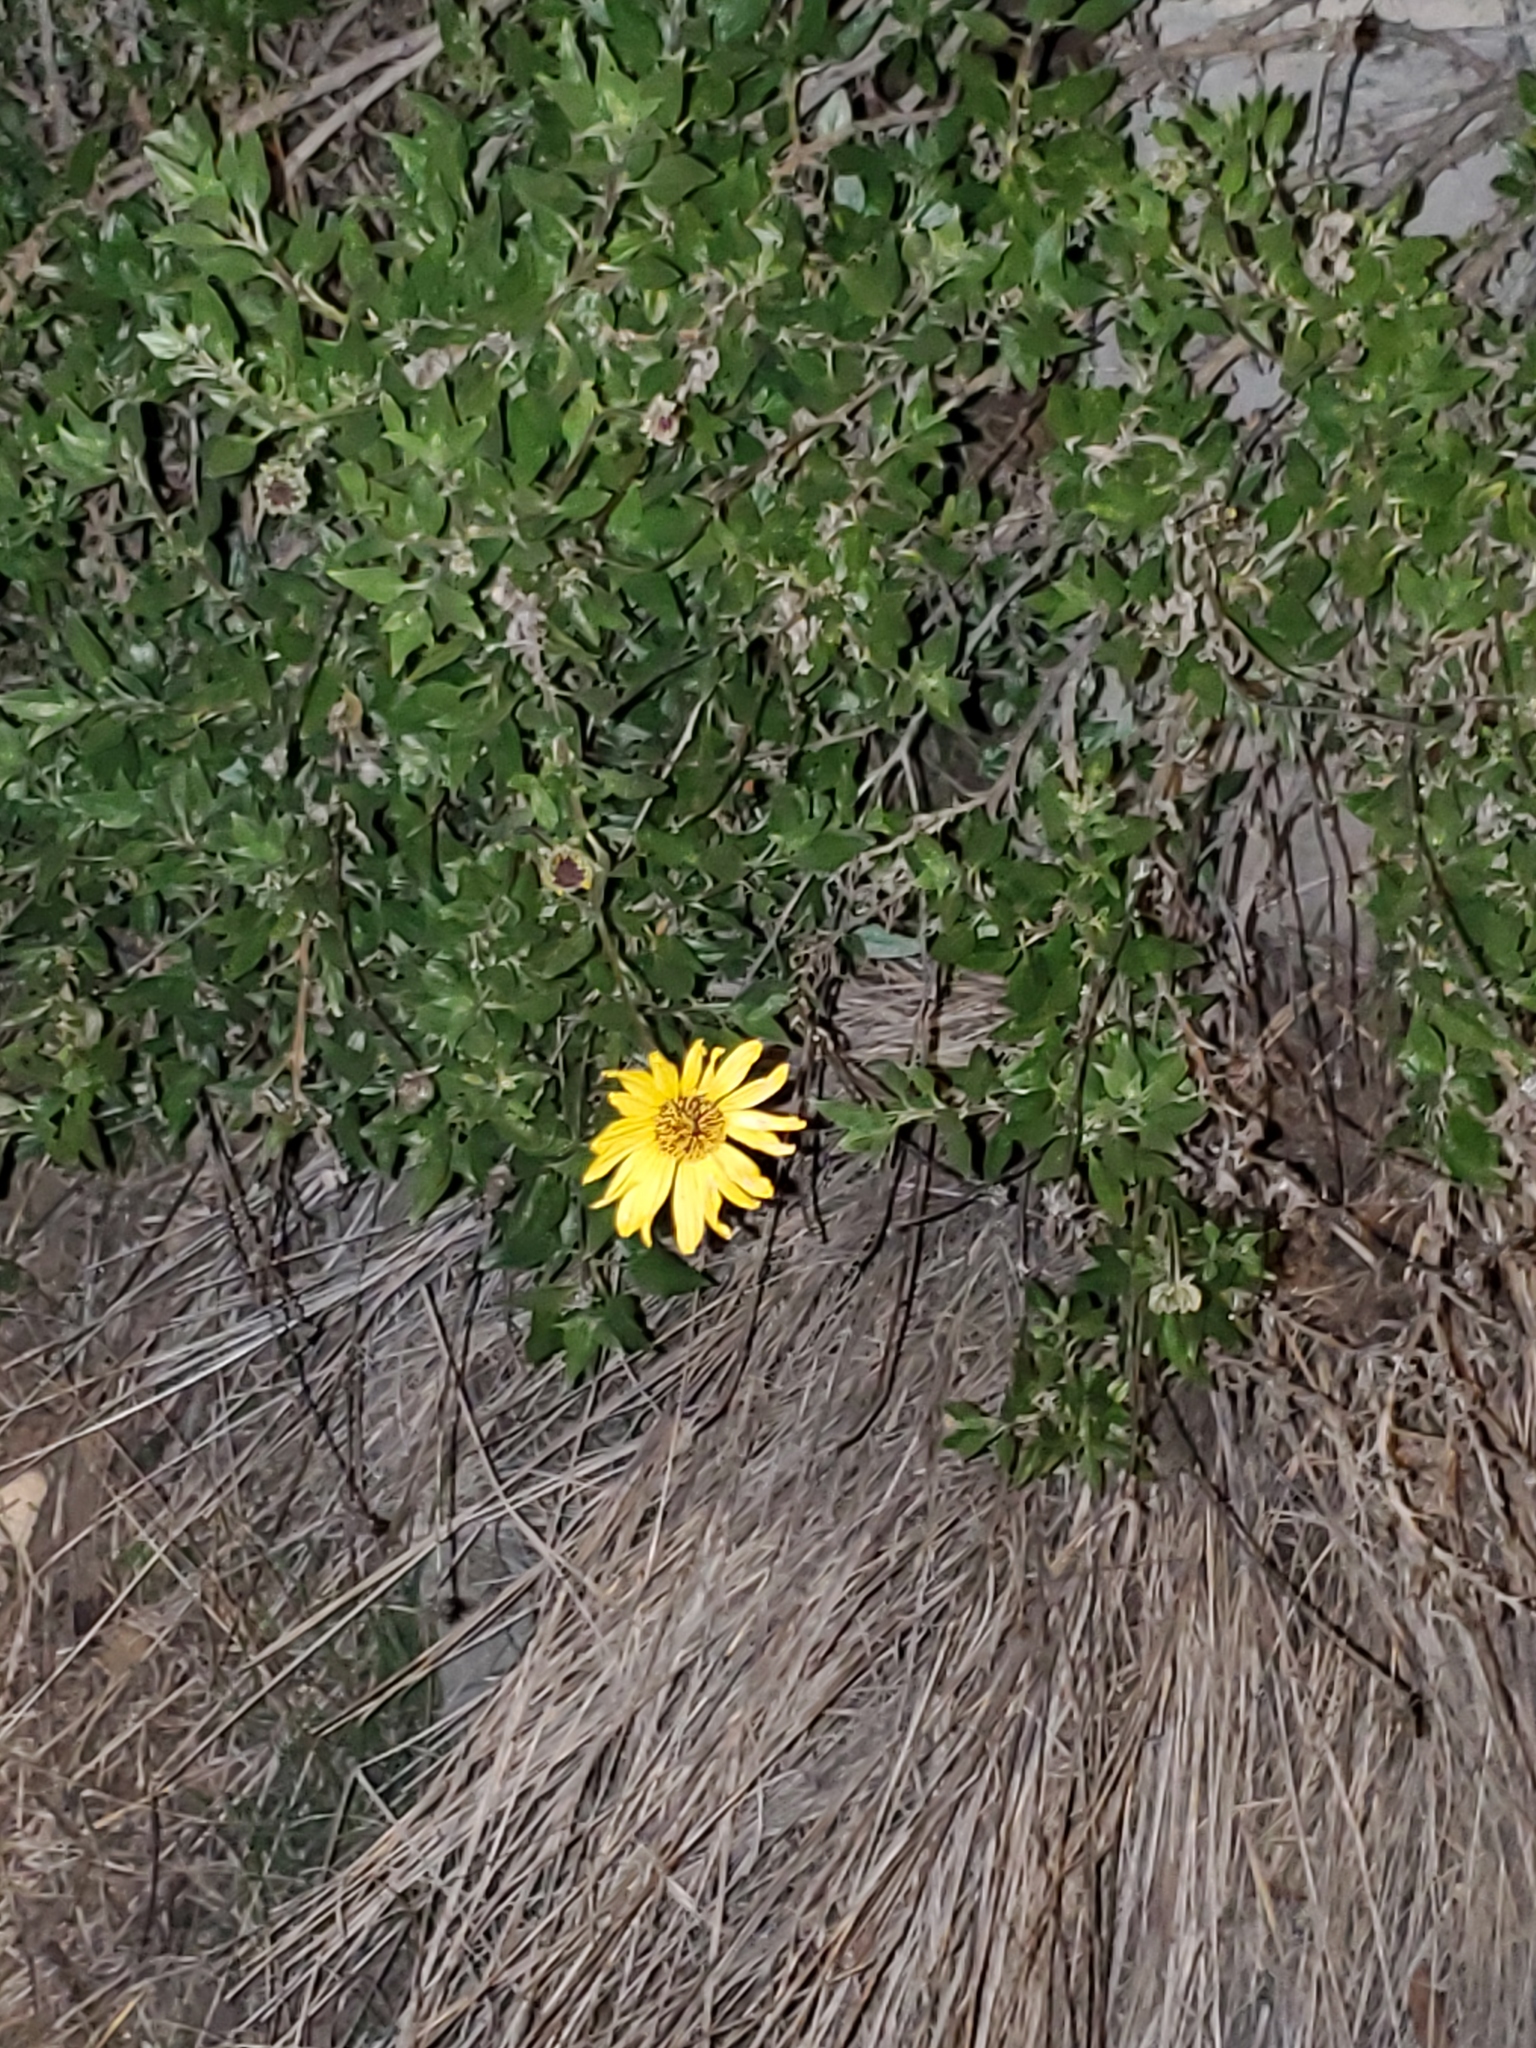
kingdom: Plantae
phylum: Tracheophyta
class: Magnoliopsida
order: Asterales
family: Asteraceae
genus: Encelia
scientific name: Encelia californica
